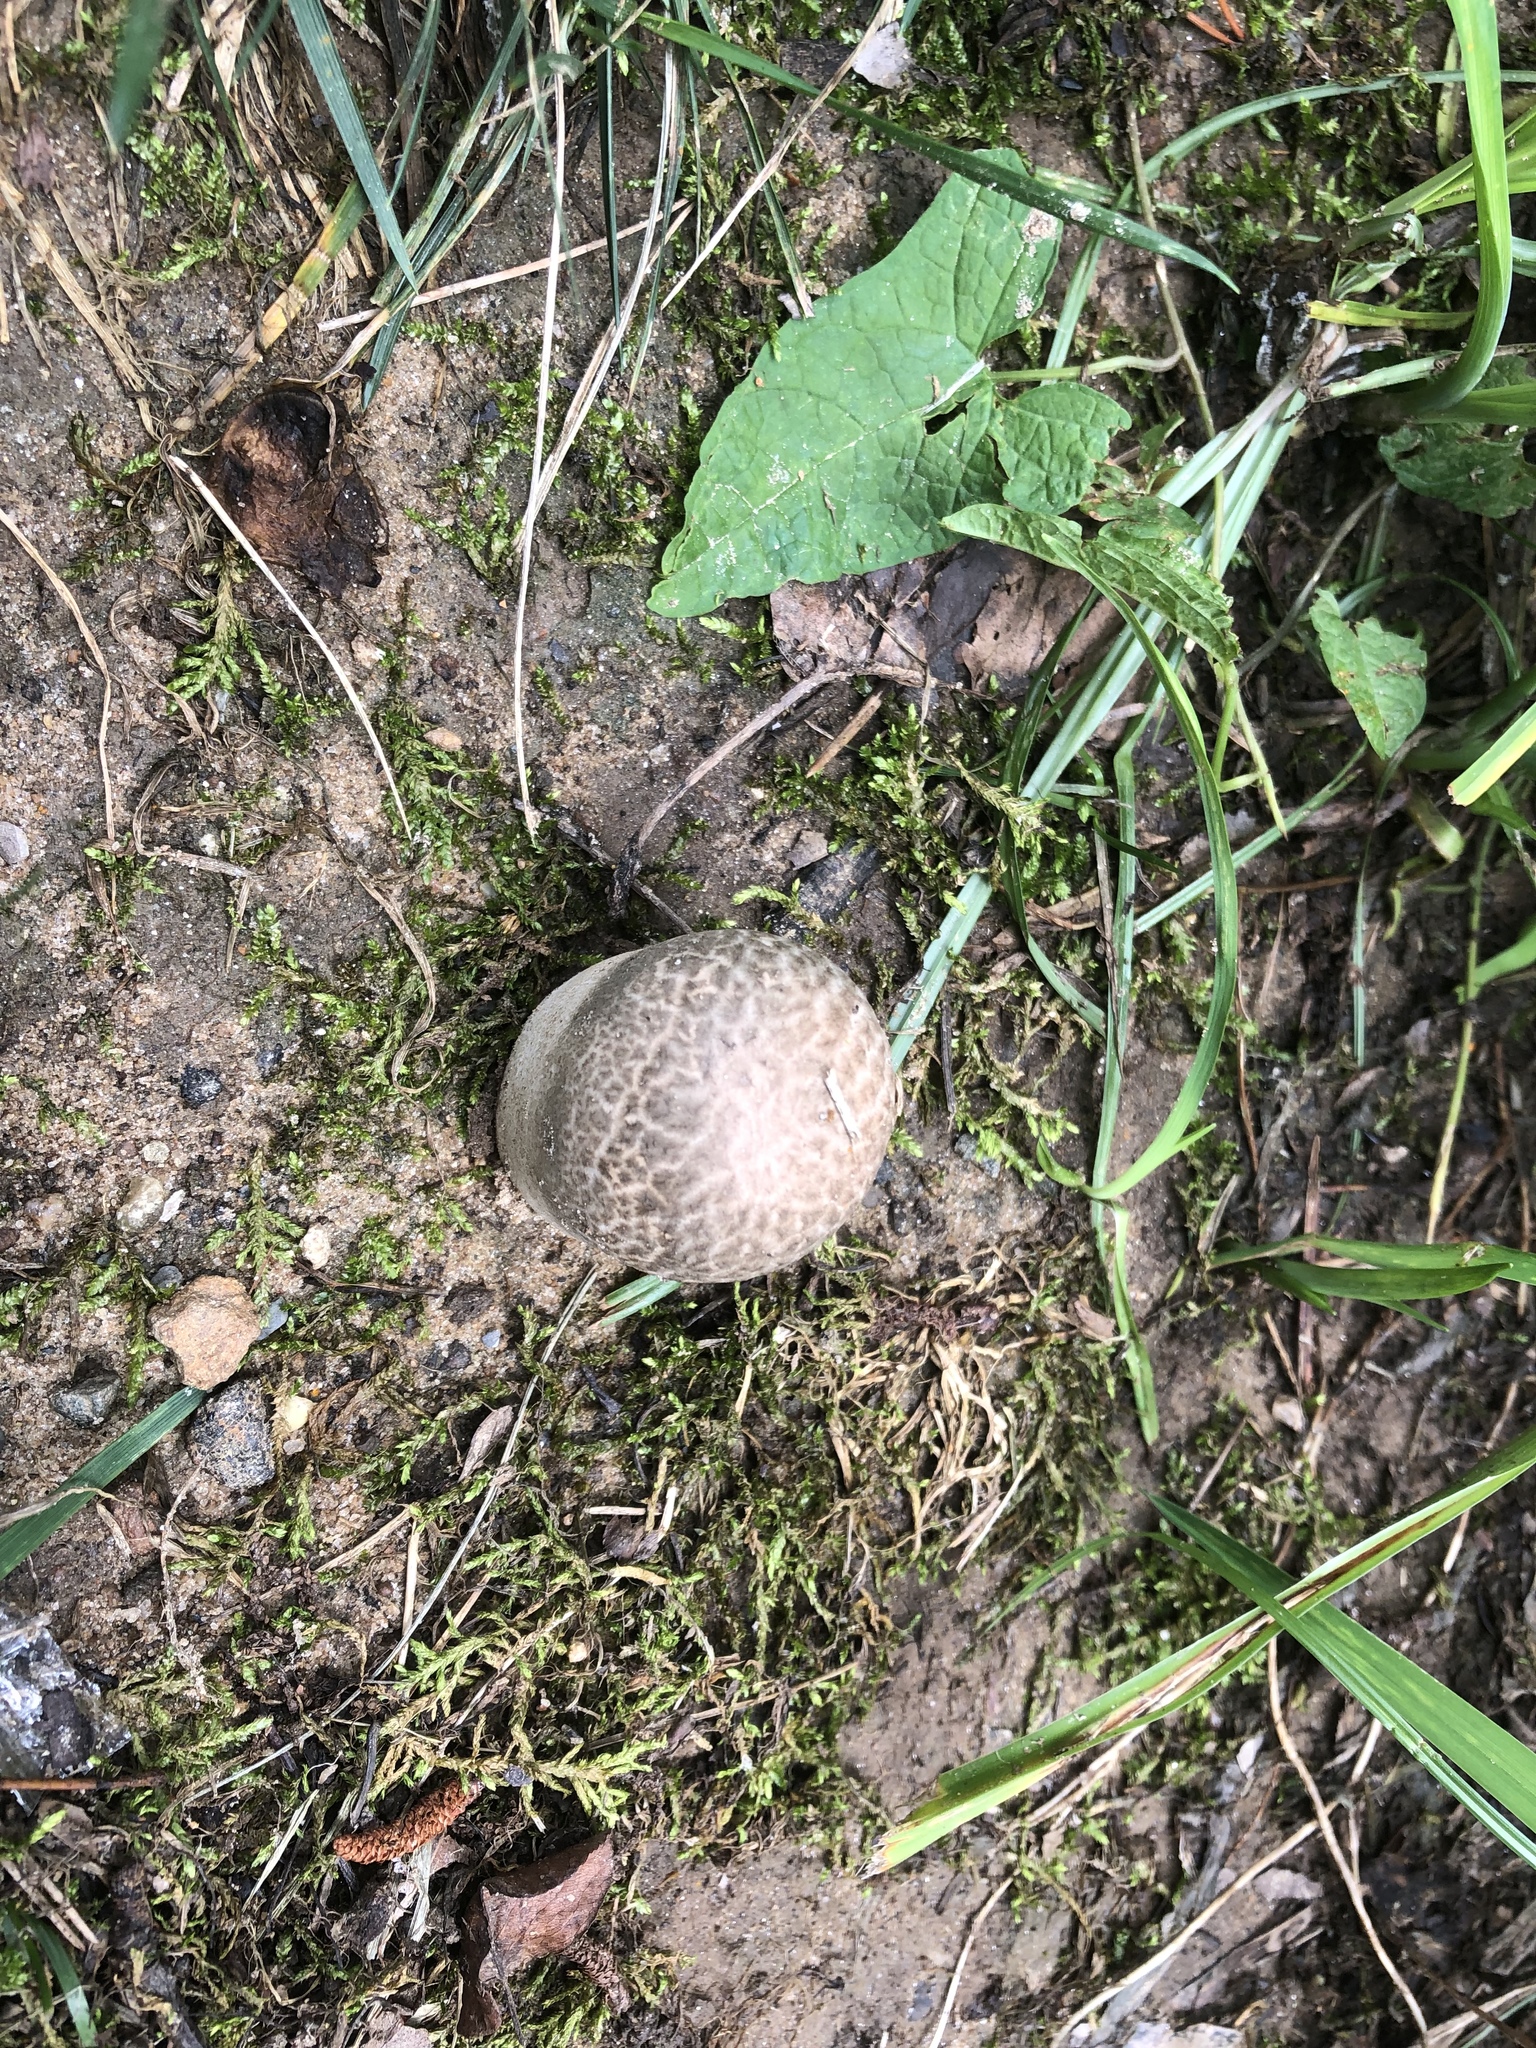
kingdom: Fungi
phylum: Basidiomycota
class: Agaricomycetes
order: Boletales
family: Sclerodermataceae
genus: Scleroderma
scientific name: Scleroderma citrinum
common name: Common earthball
